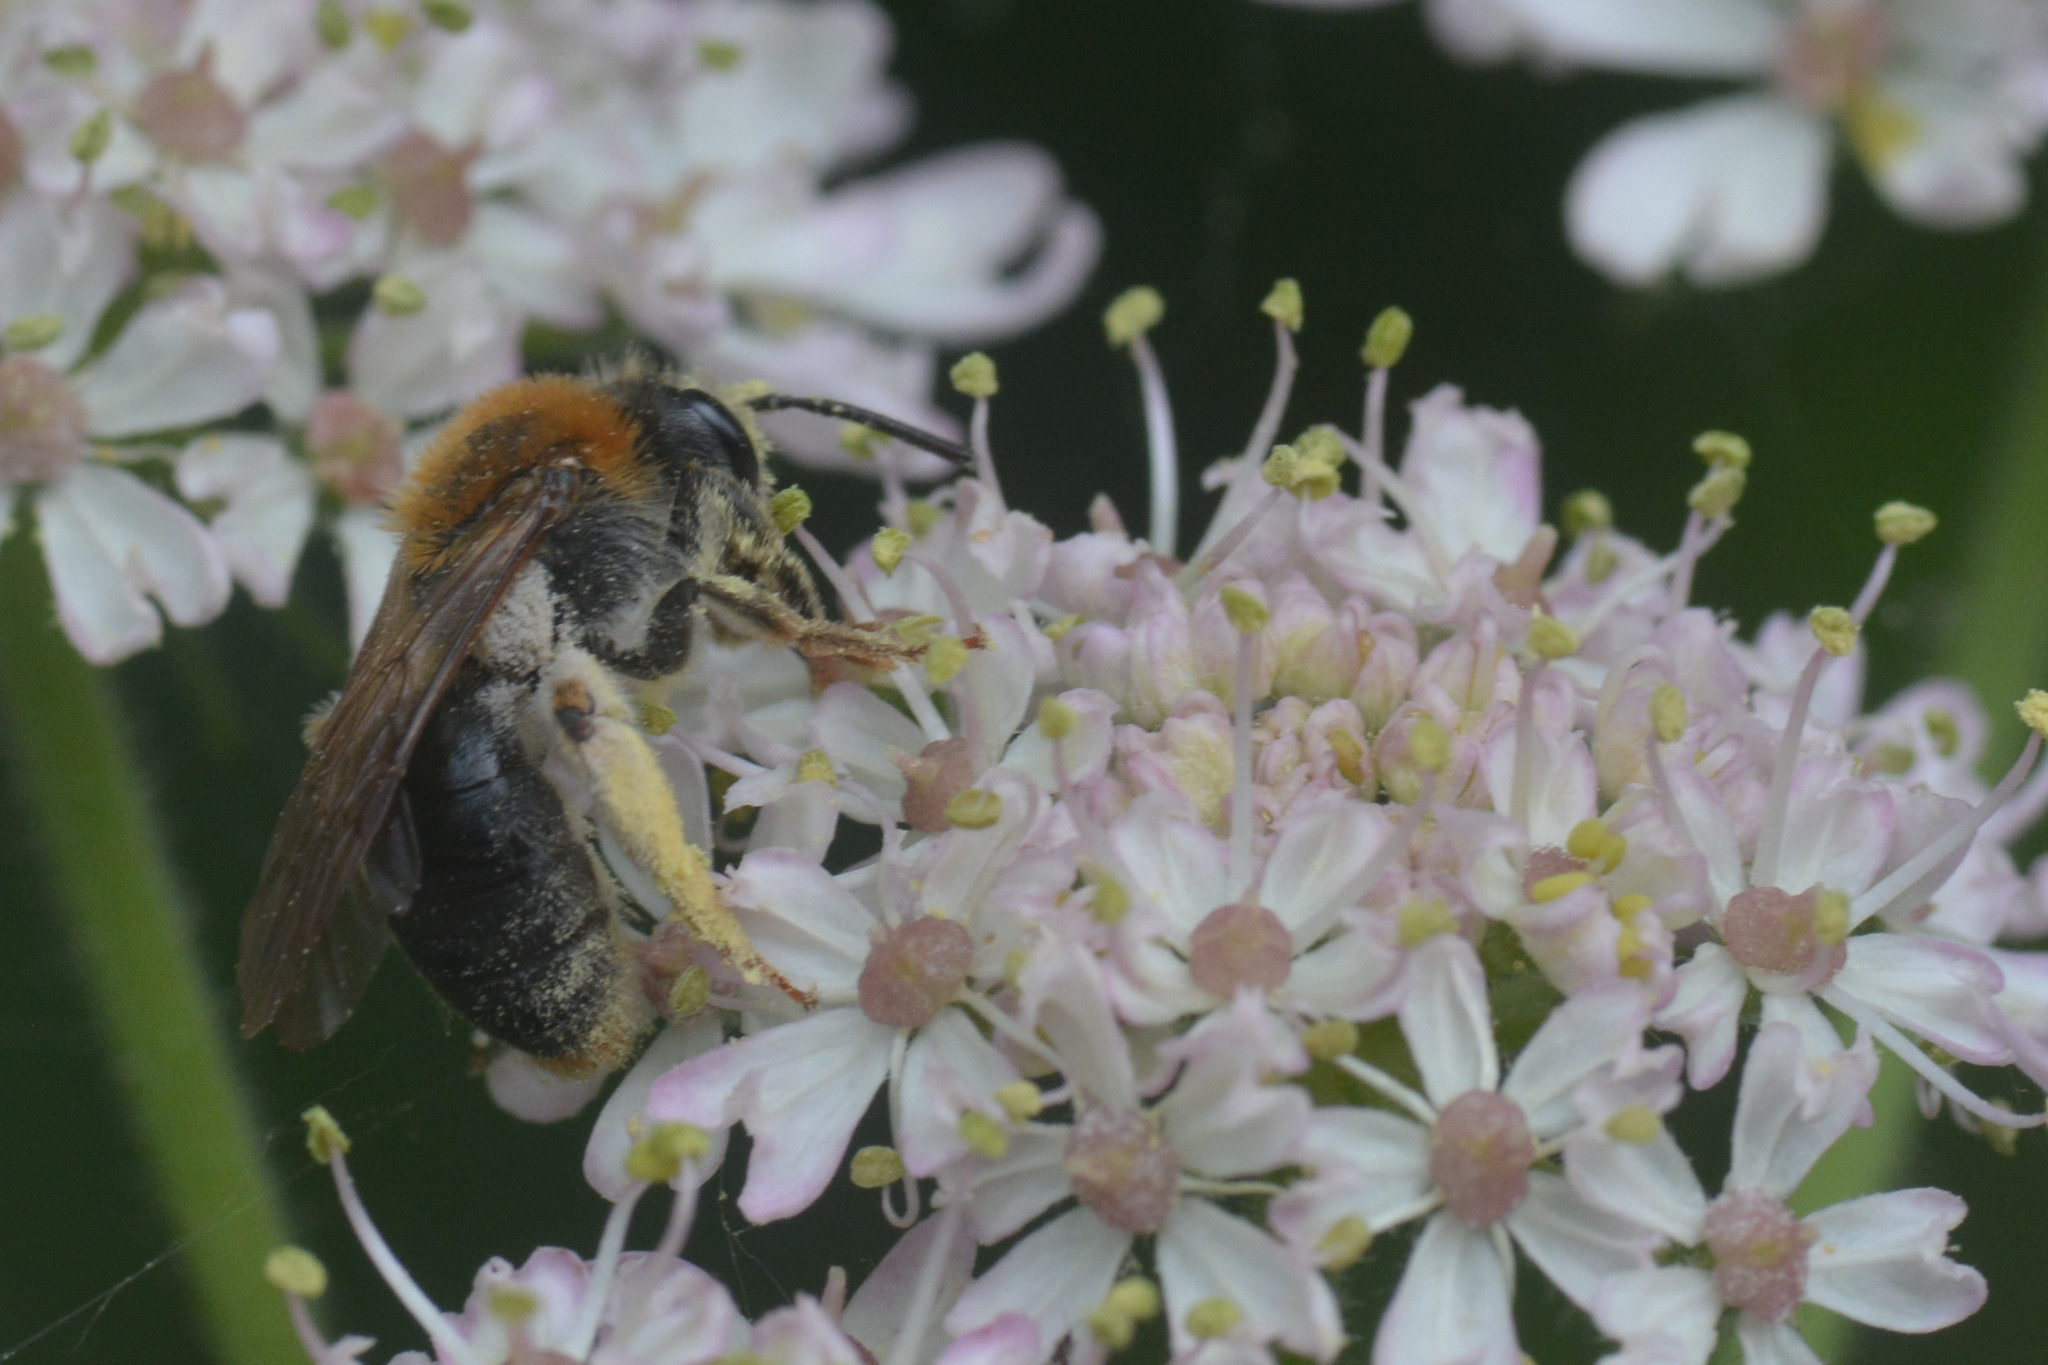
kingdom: Animalia
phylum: Arthropoda
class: Insecta
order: Hymenoptera
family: Andrenidae
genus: Andrena
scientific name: Andrena haemorrhoa
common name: Early mining bee
